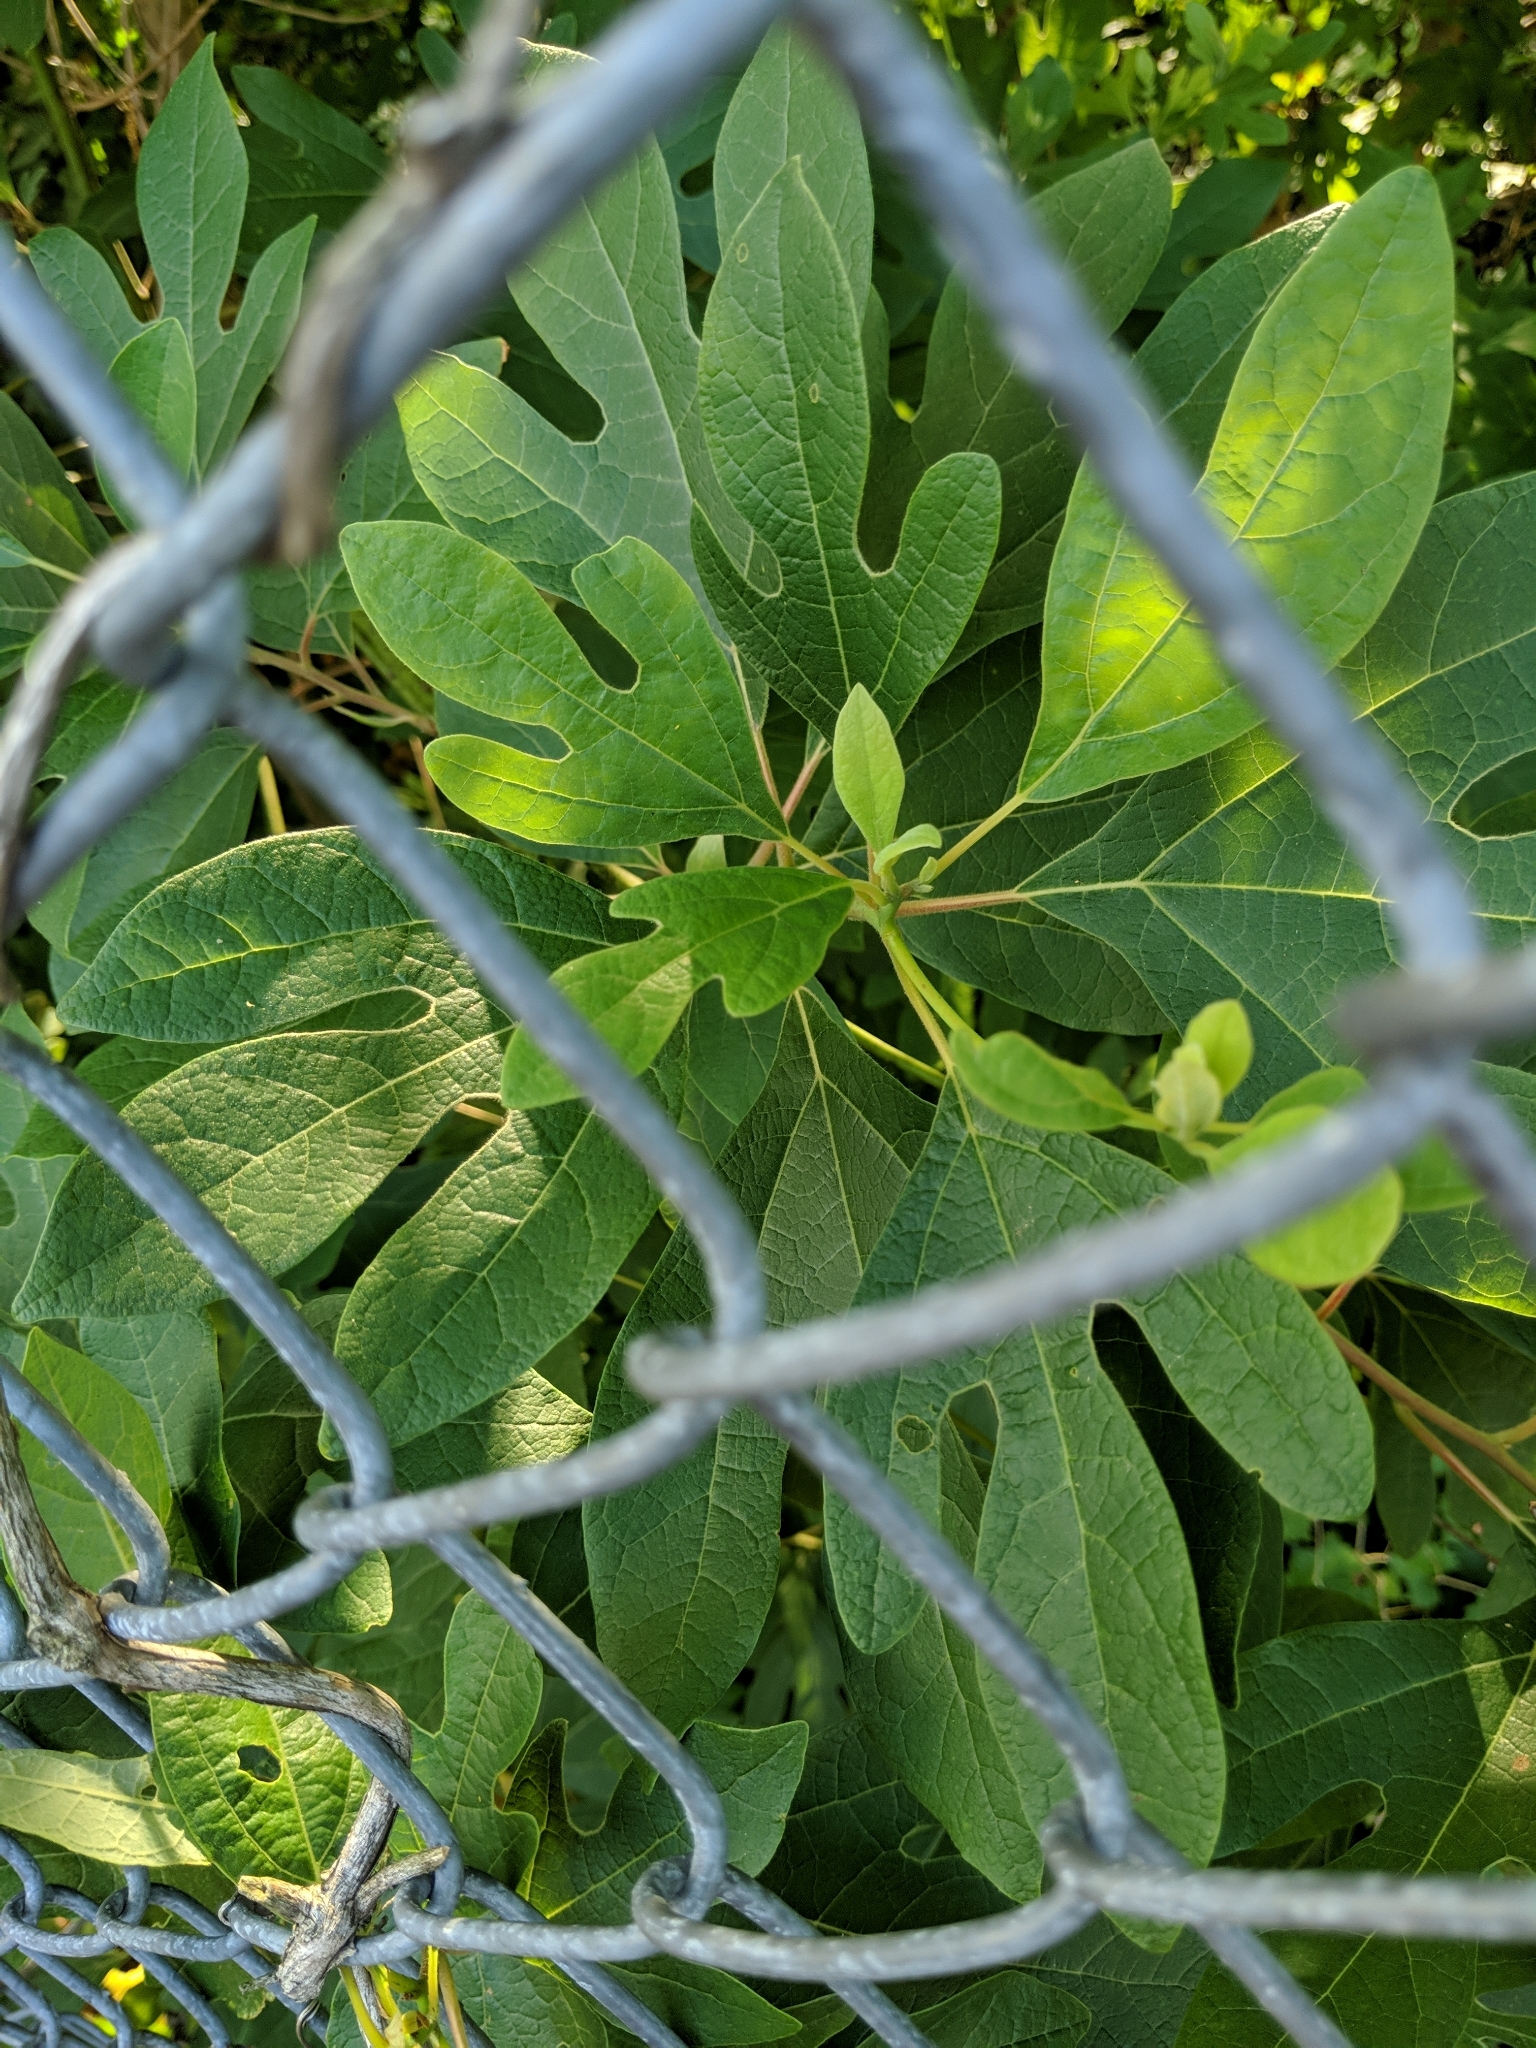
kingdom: Plantae
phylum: Tracheophyta
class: Magnoliopsida
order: Laurales
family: Lauraceae
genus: Sassafras
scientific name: Sassafras albidum
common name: Sassafras
